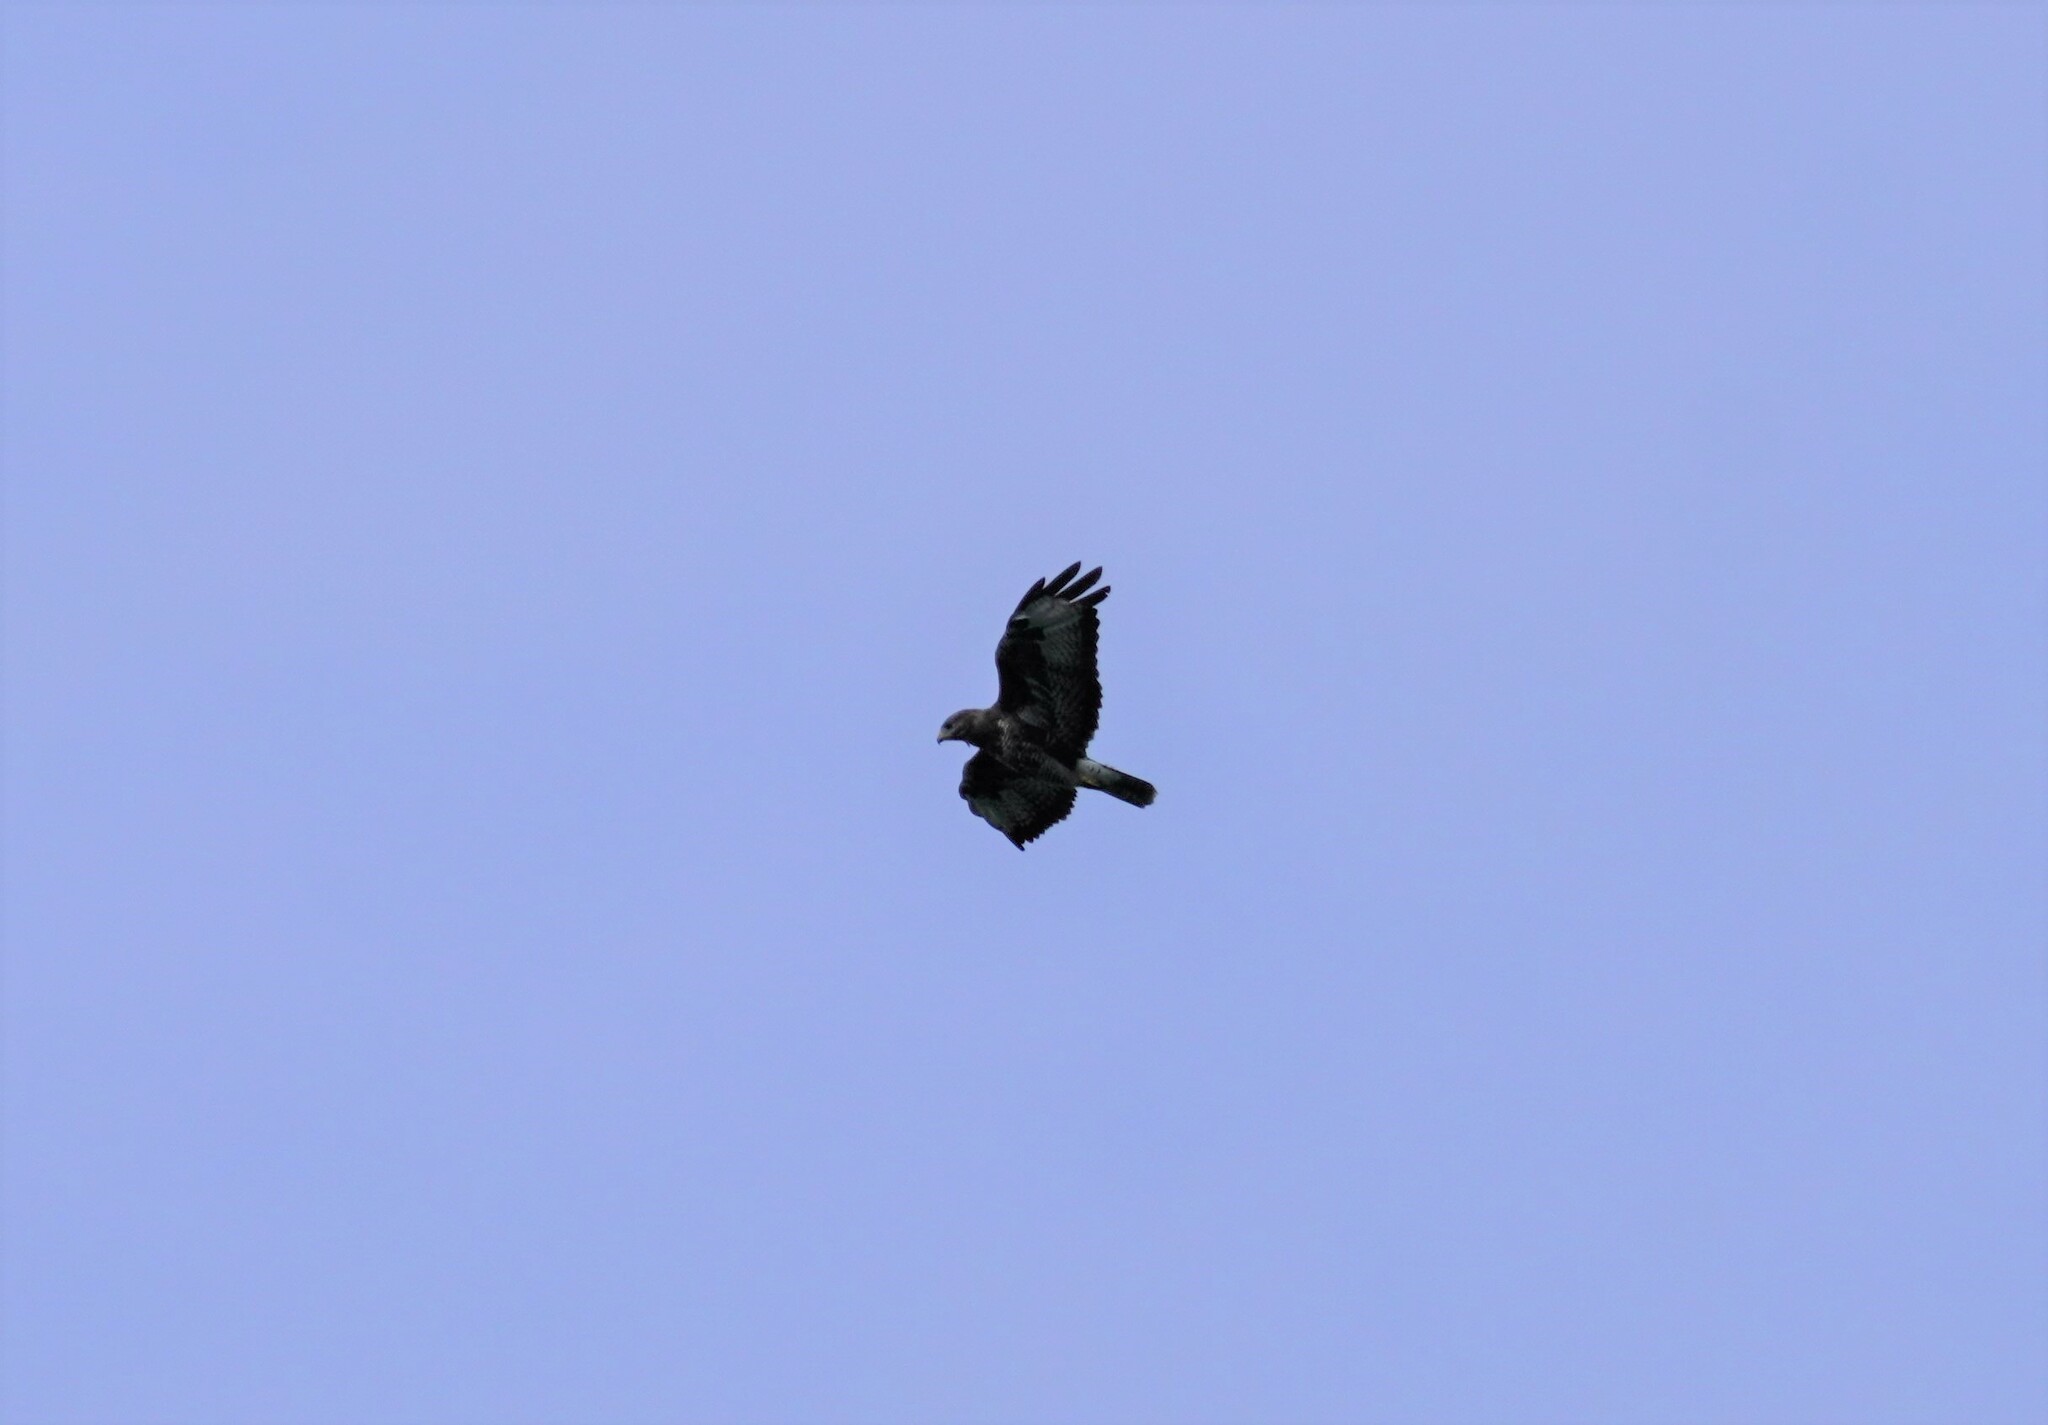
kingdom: Animalia
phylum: Chordata
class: Aves
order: Accipitriformes
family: Accipitridae
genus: Buteo
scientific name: Buteo buteo
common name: Common buzzard
